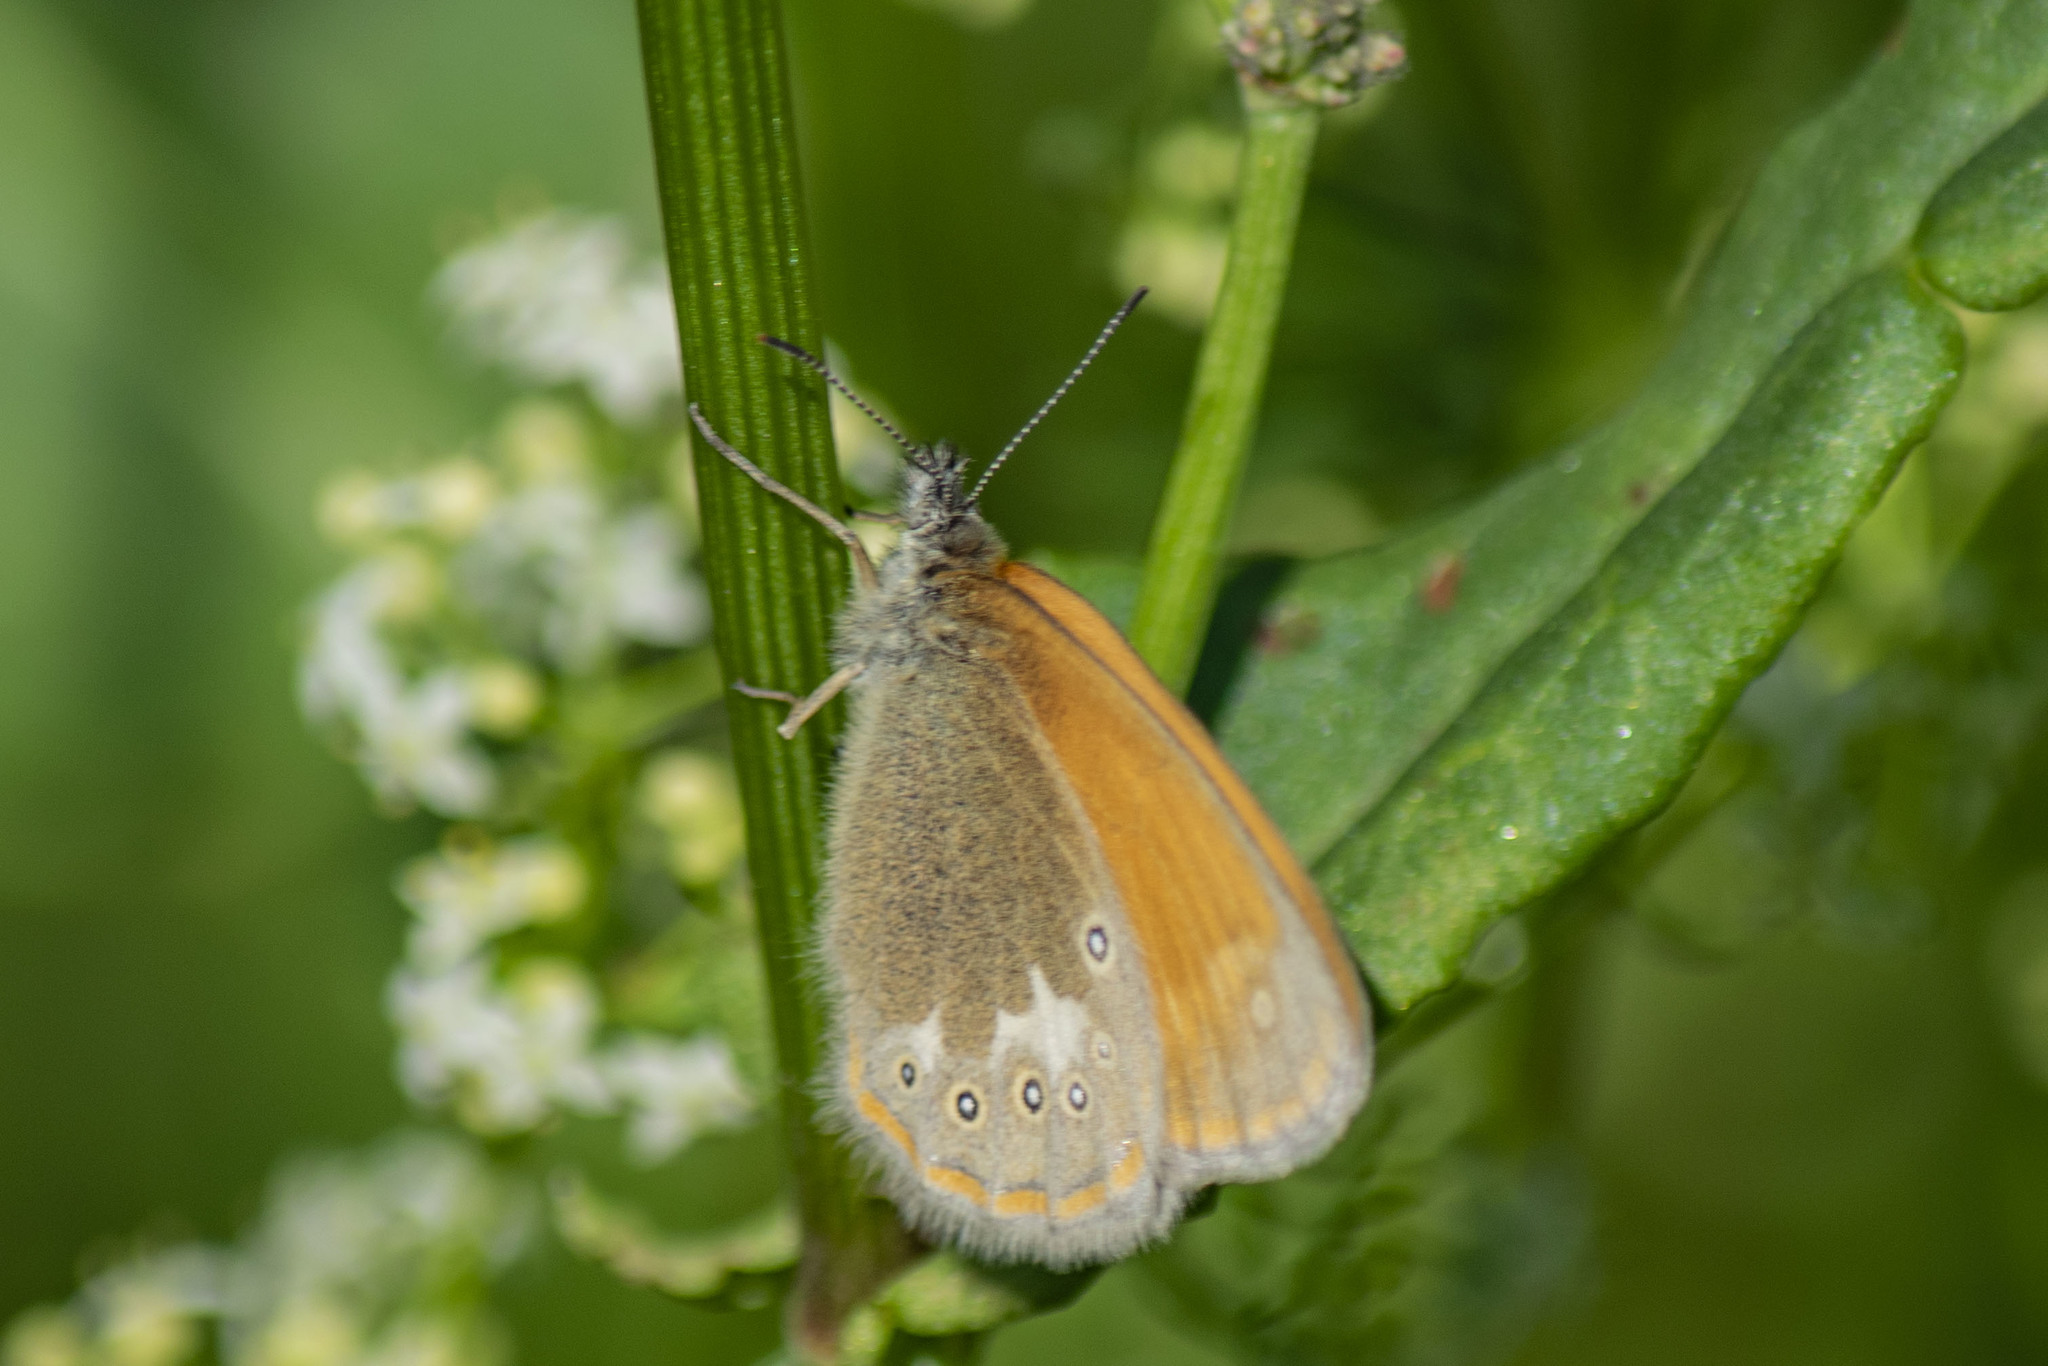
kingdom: Animalia
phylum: Arthropoda
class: Insecta
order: Lepidoptera
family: Nymphalidae
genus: Coenonympha
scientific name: Coenonympha iphis
